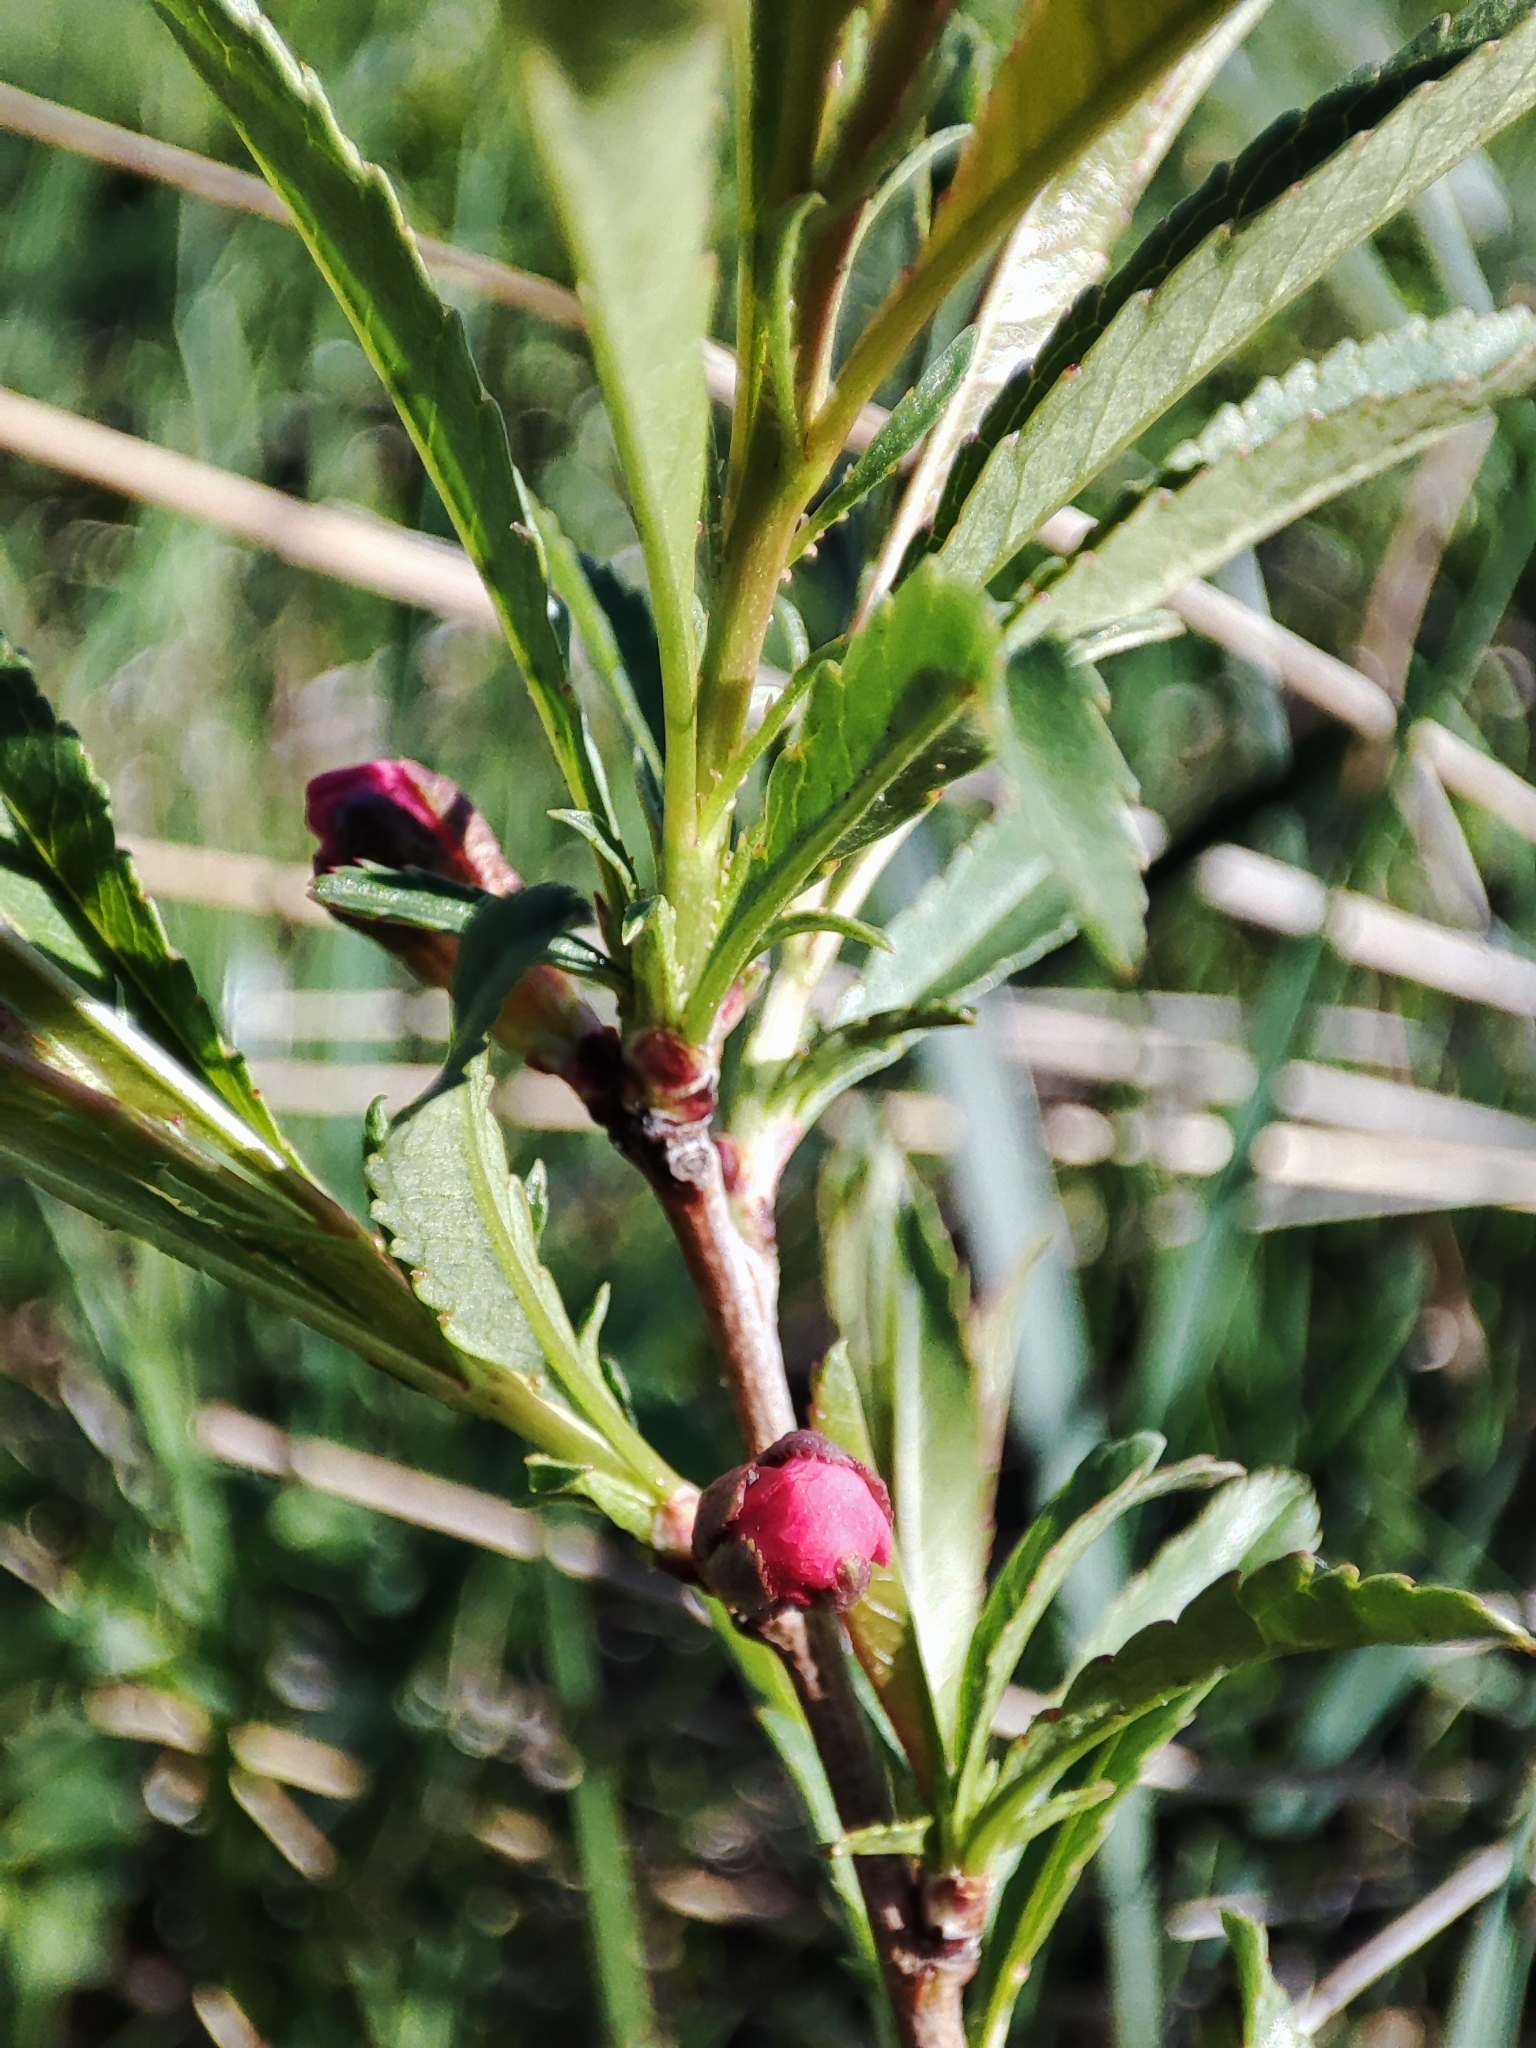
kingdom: Plantae
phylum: Tracheophyta
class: Magnoliopsida
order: Rosales
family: Rosaceae
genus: Prunus
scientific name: Prunus tenella
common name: Dwarf russian almond
